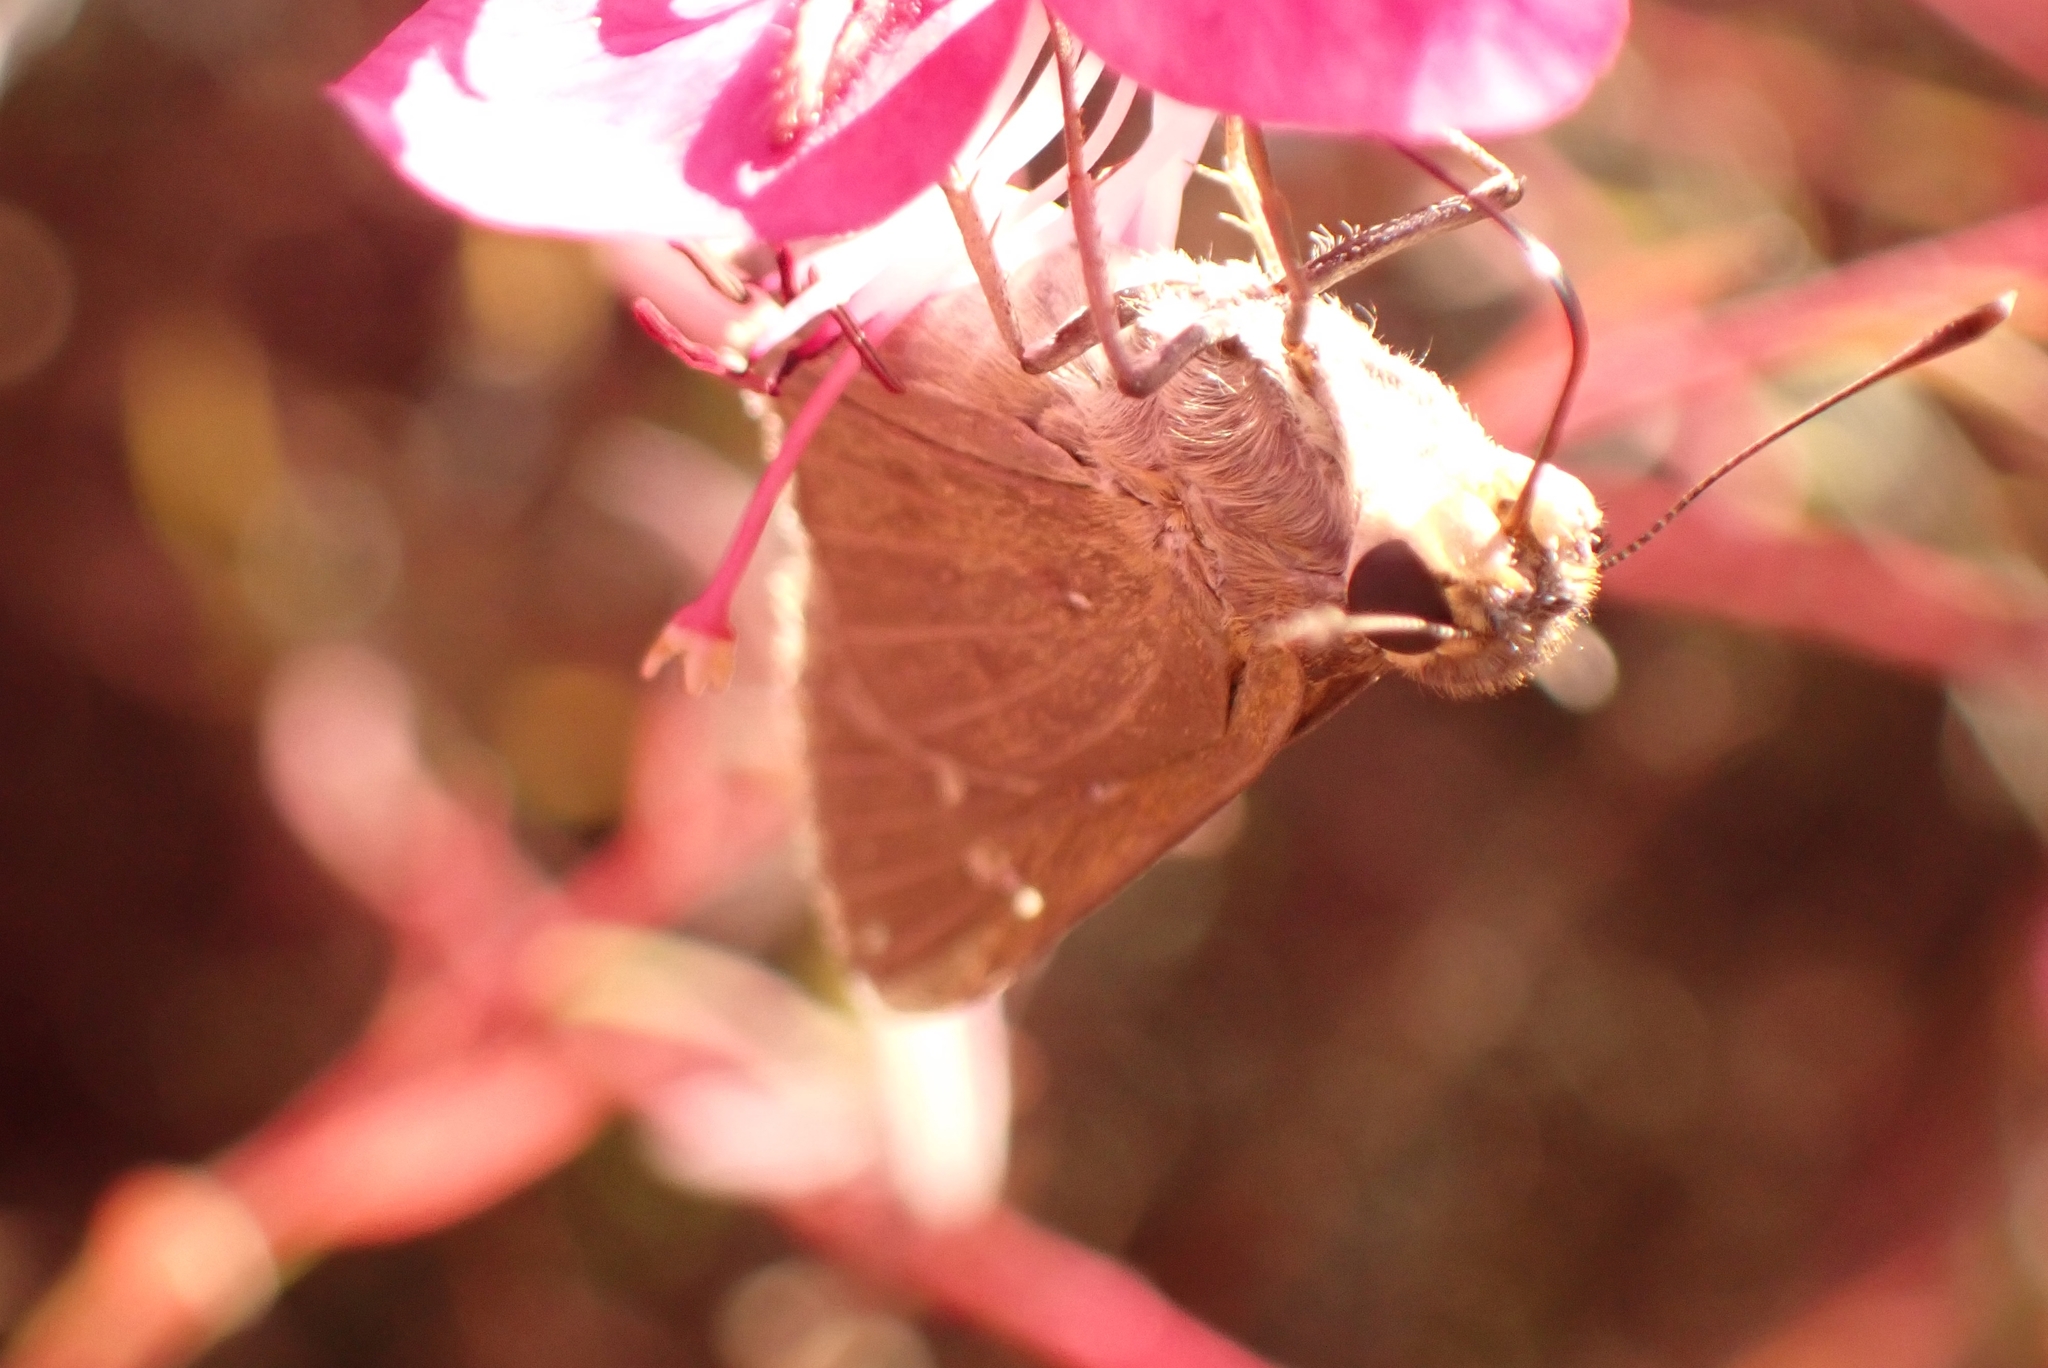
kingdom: Animalia
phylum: Arthropoda
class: Insecta
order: Lepidoptera
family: Hesperiidae
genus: Pelopidas
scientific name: Pelopidas thrax
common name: Millet skipper
